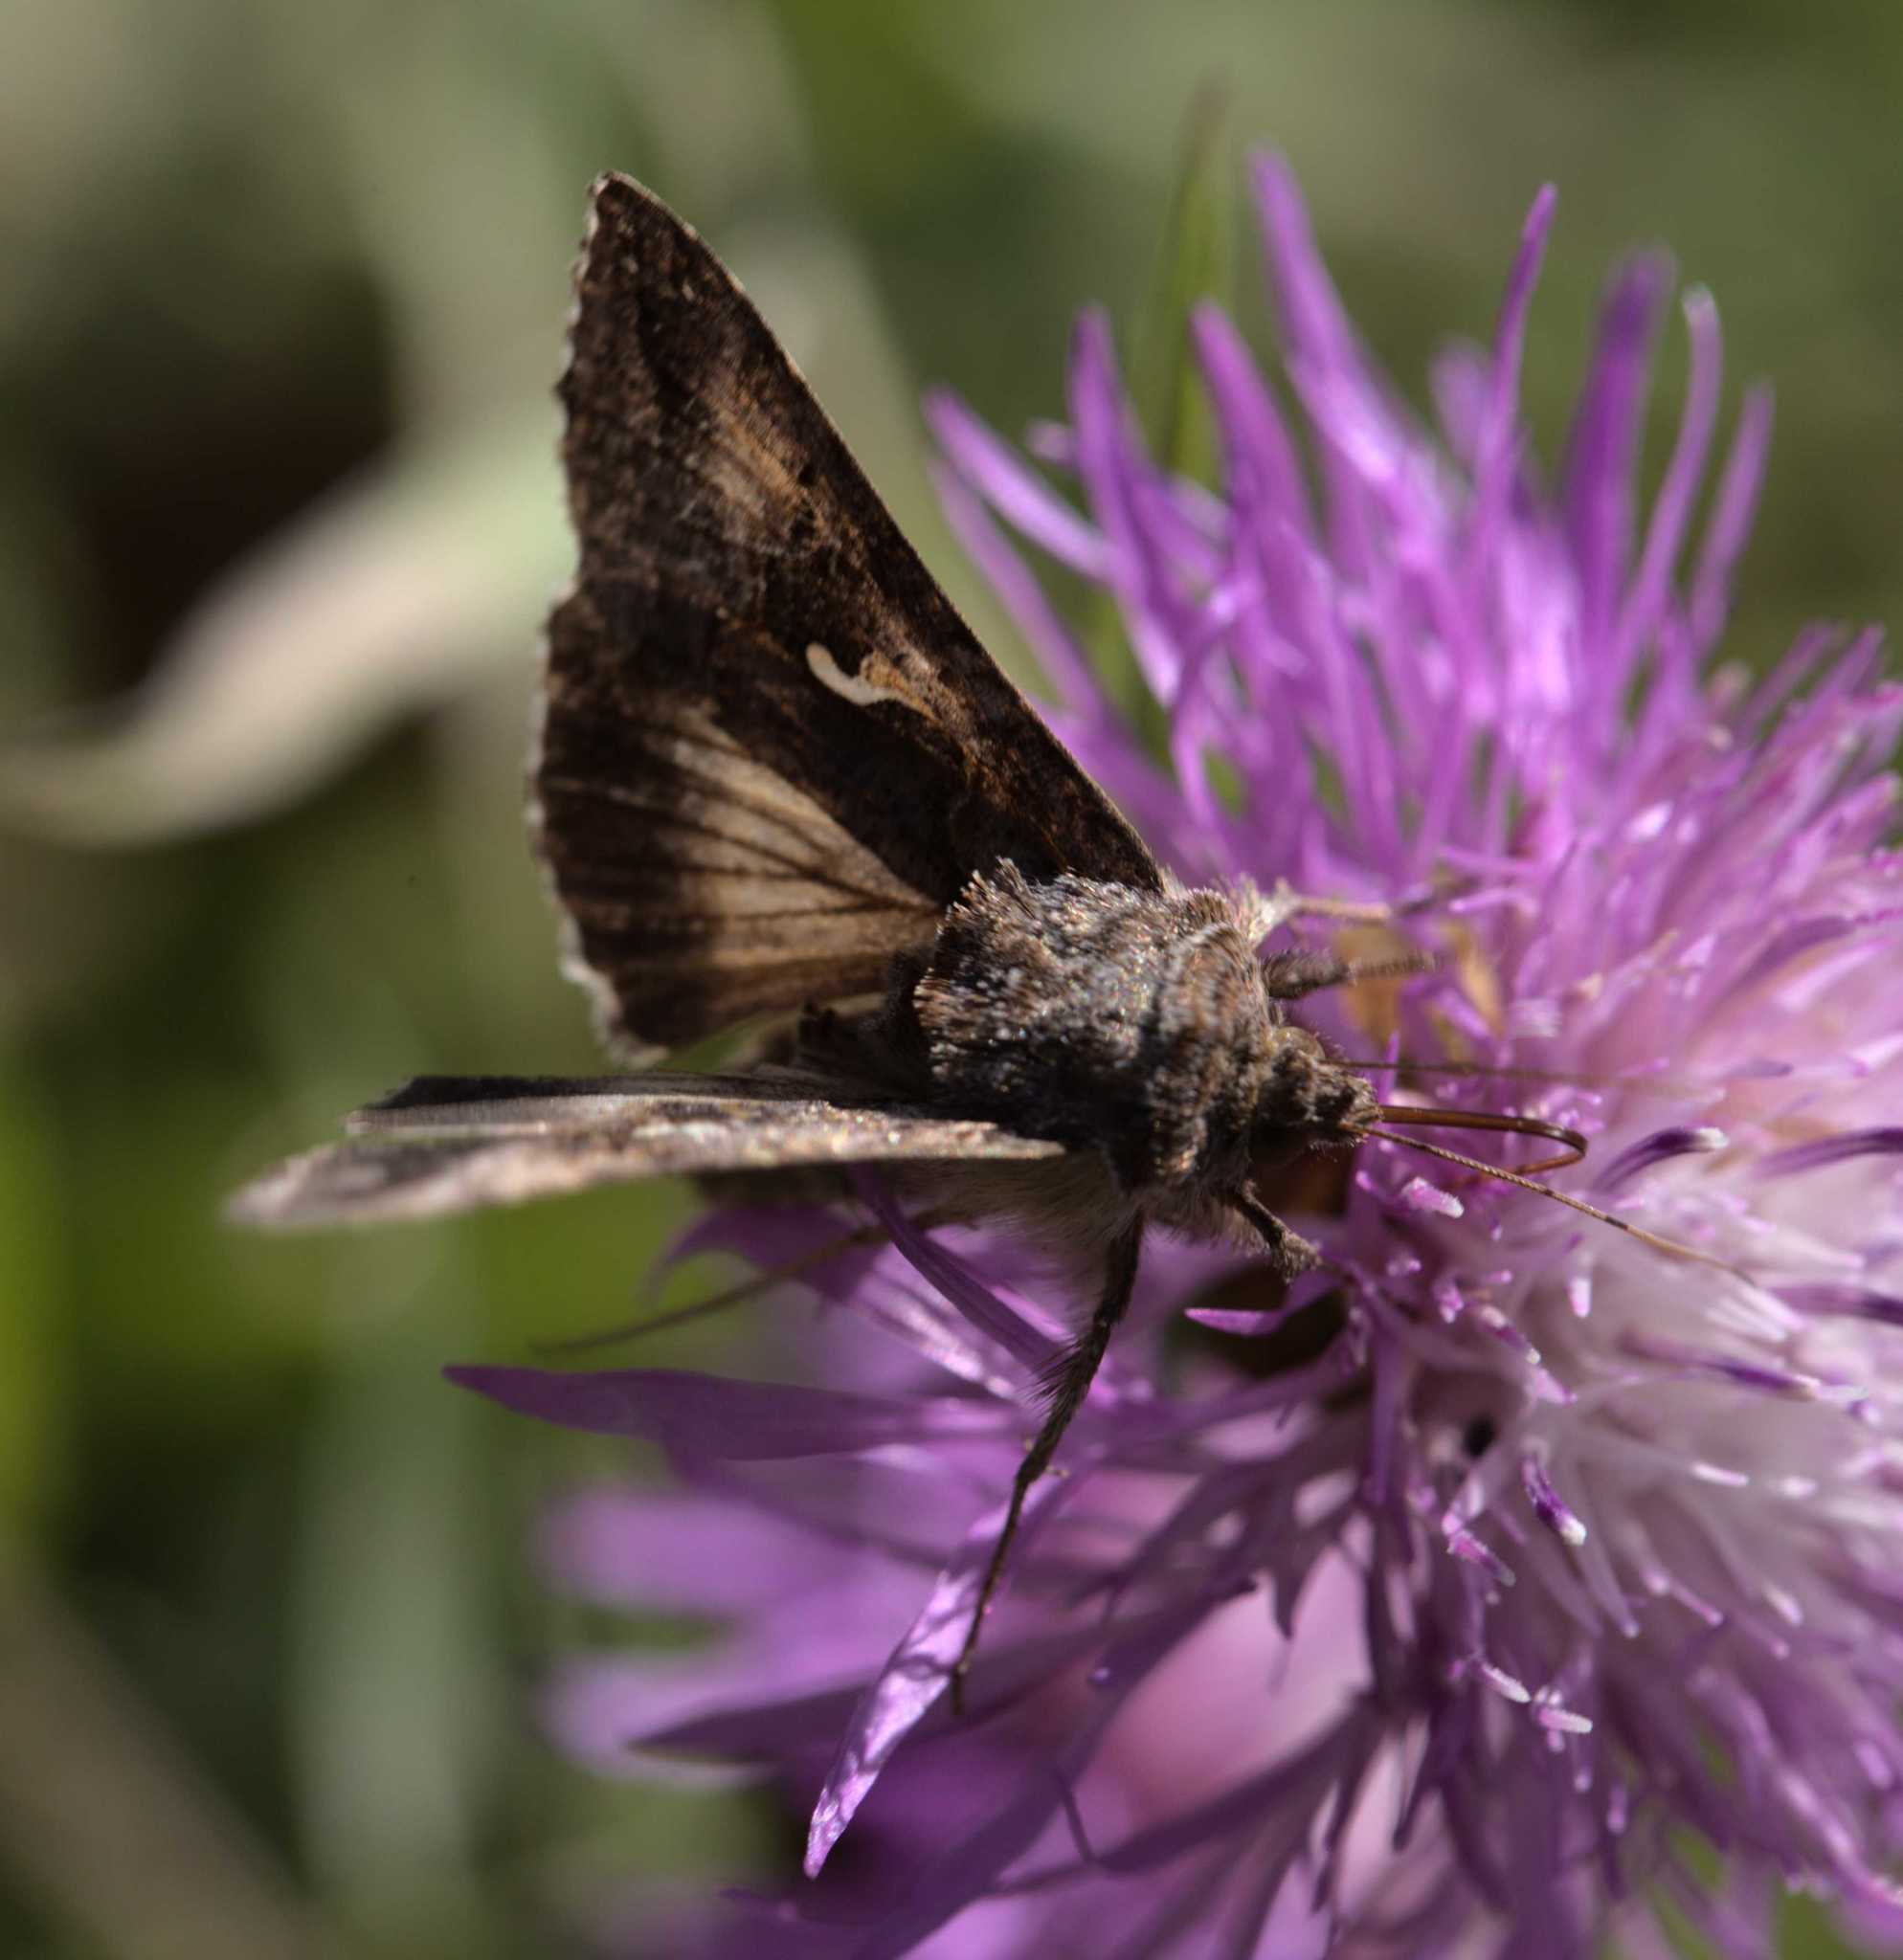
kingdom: Animalia
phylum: Arthropoda
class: Insecta
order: Lepidoptera
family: Noctuidae
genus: Autographa
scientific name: Autographa gamma
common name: Silver y
